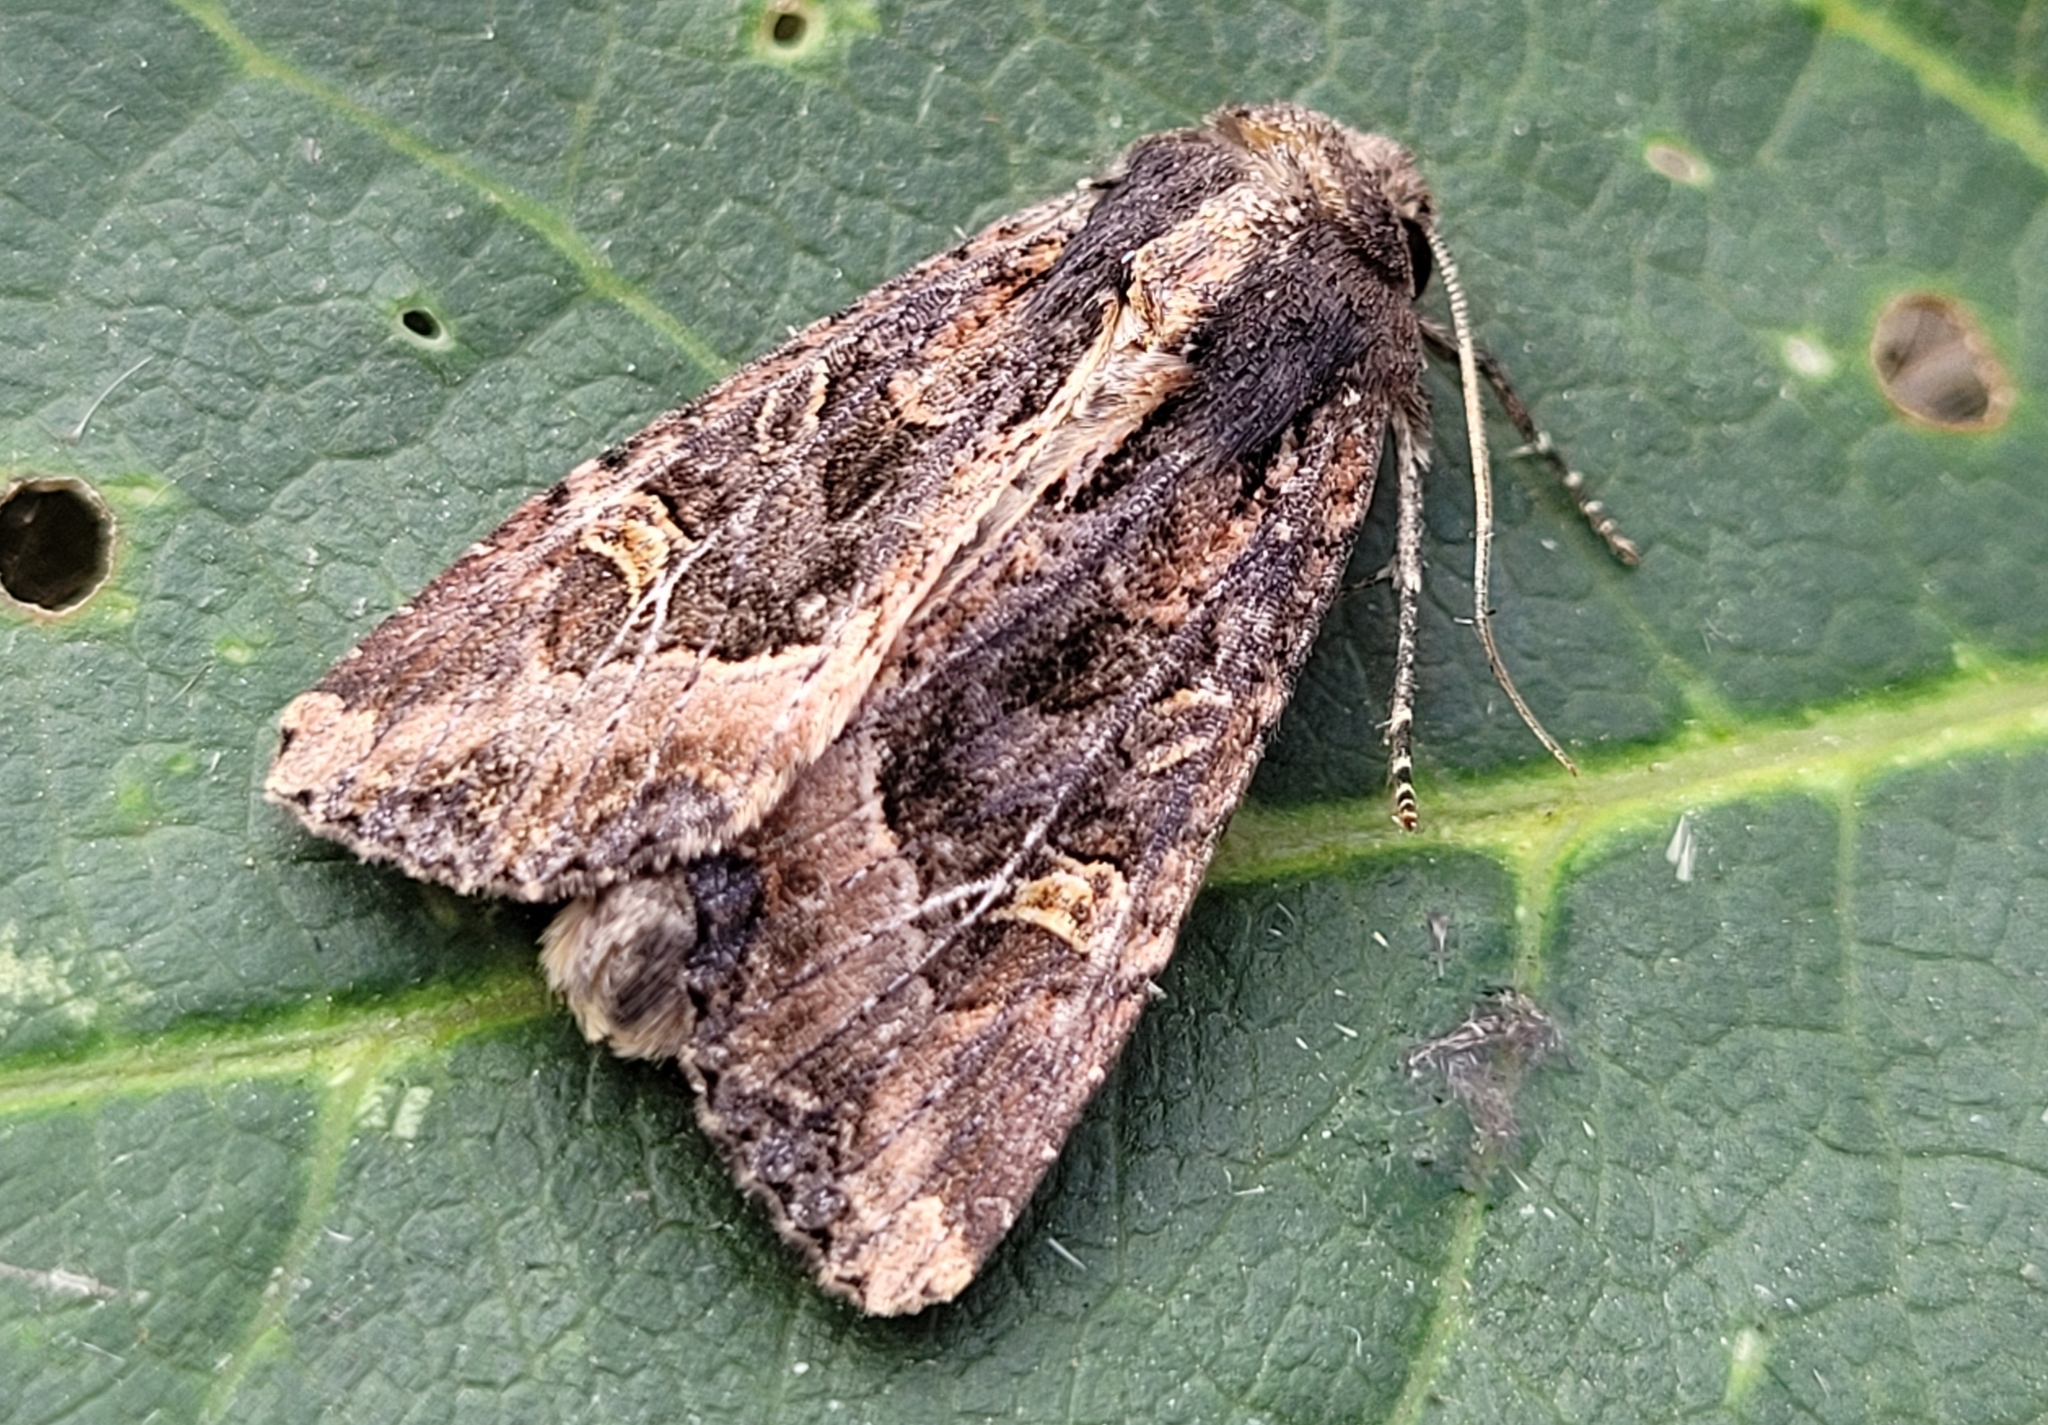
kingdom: Animalia
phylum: Arthropoda
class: Insecta
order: Lepidoptera
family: Noctuidae
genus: Helotropha
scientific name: Helotropha reniformis
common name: Kidney-spotted rustic moth
